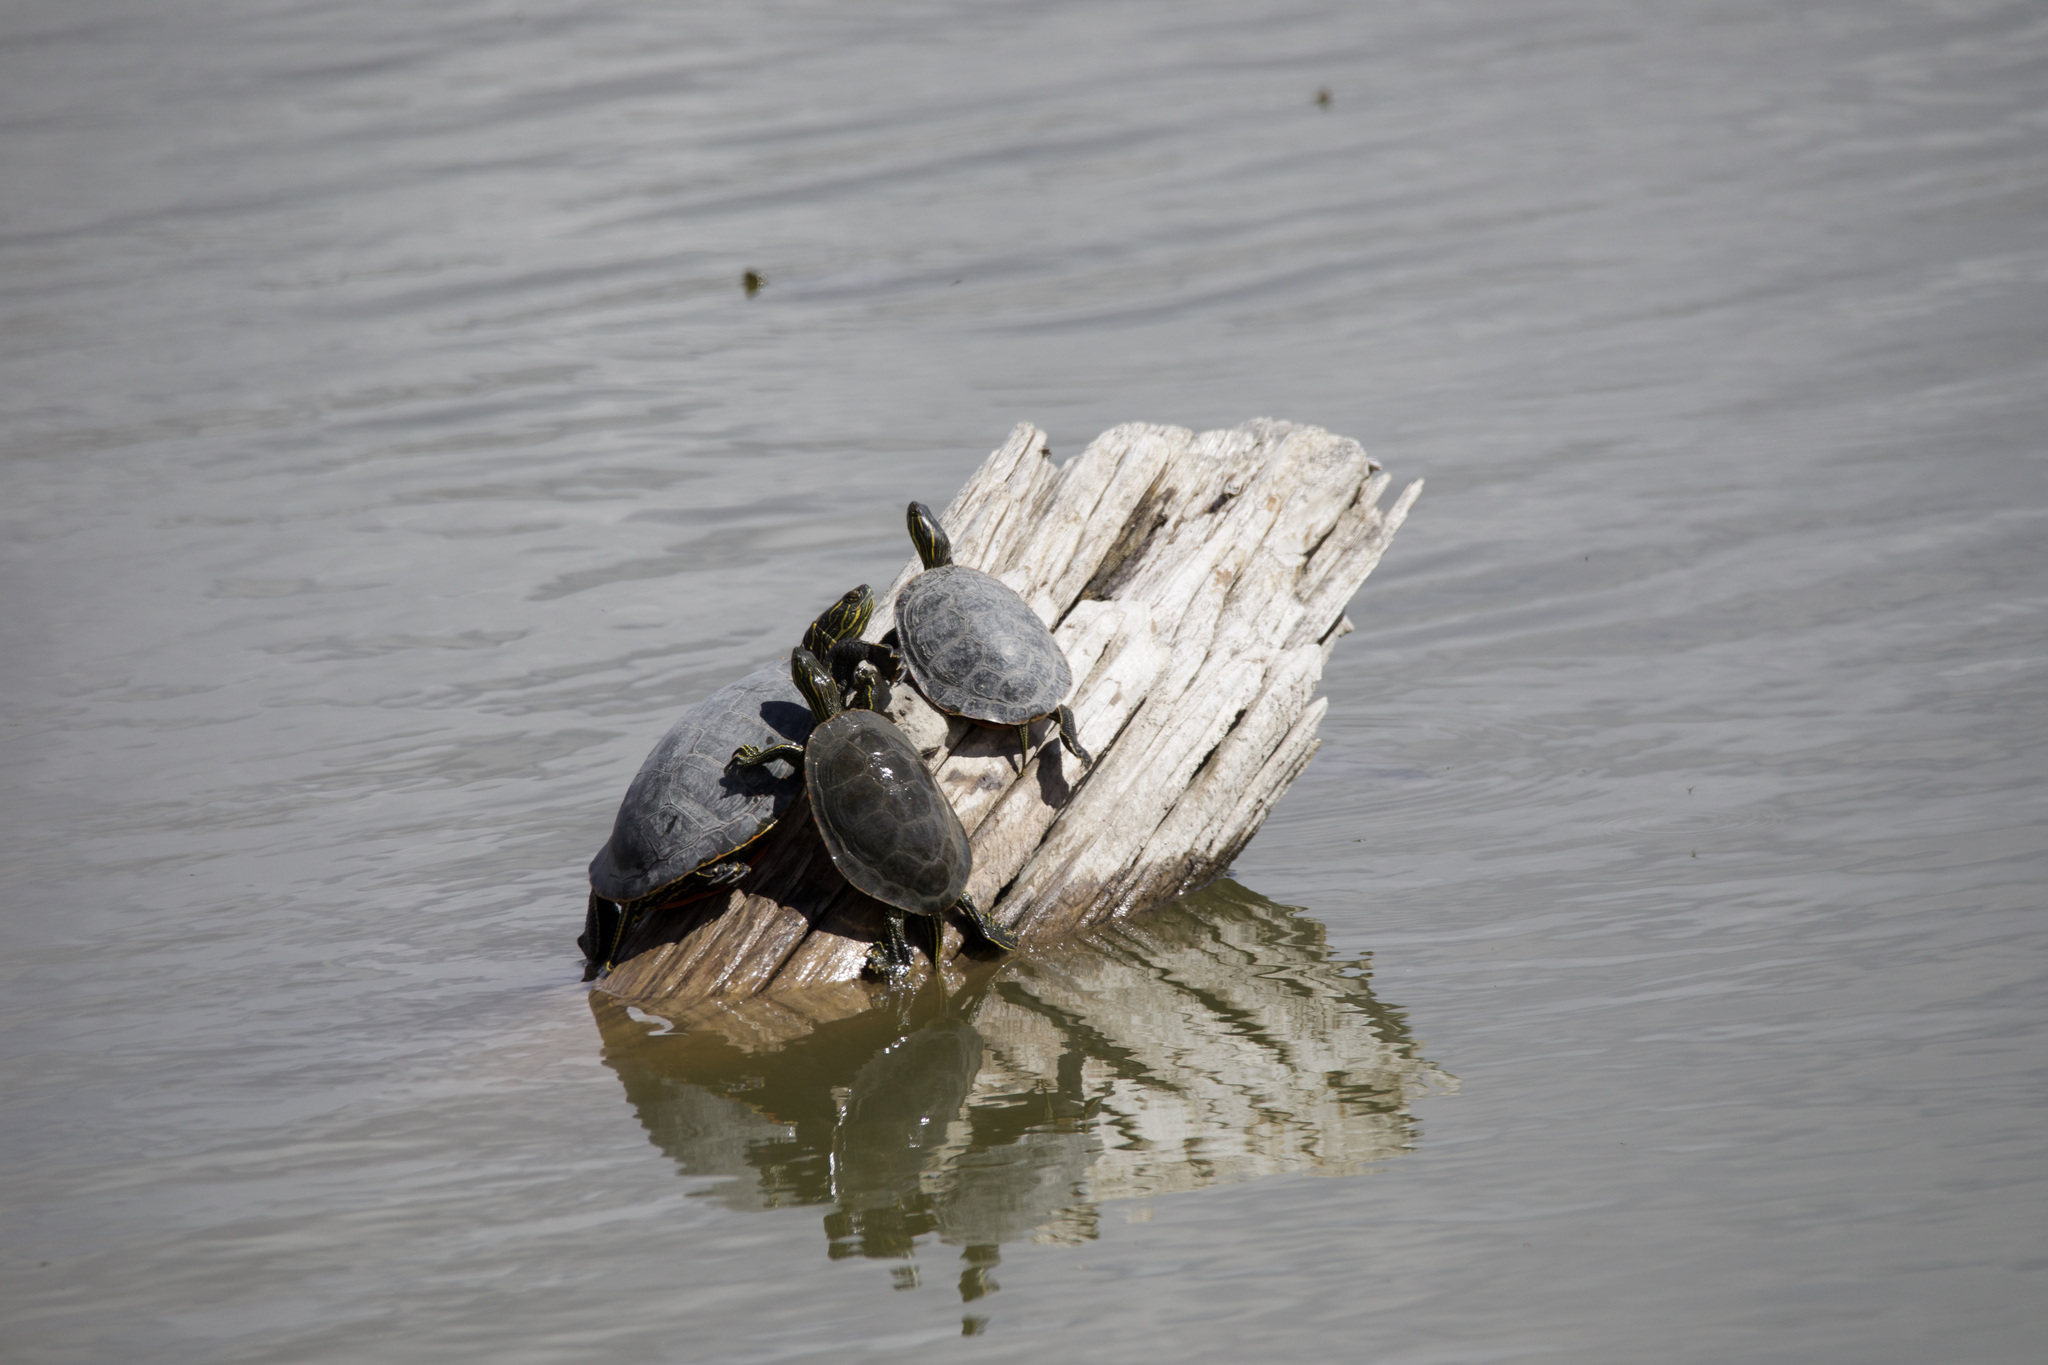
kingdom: Animalia
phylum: Chordata
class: Testudines
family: Emydidae
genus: Chrysemys
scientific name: Chrysemys picta
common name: Painted turtle
